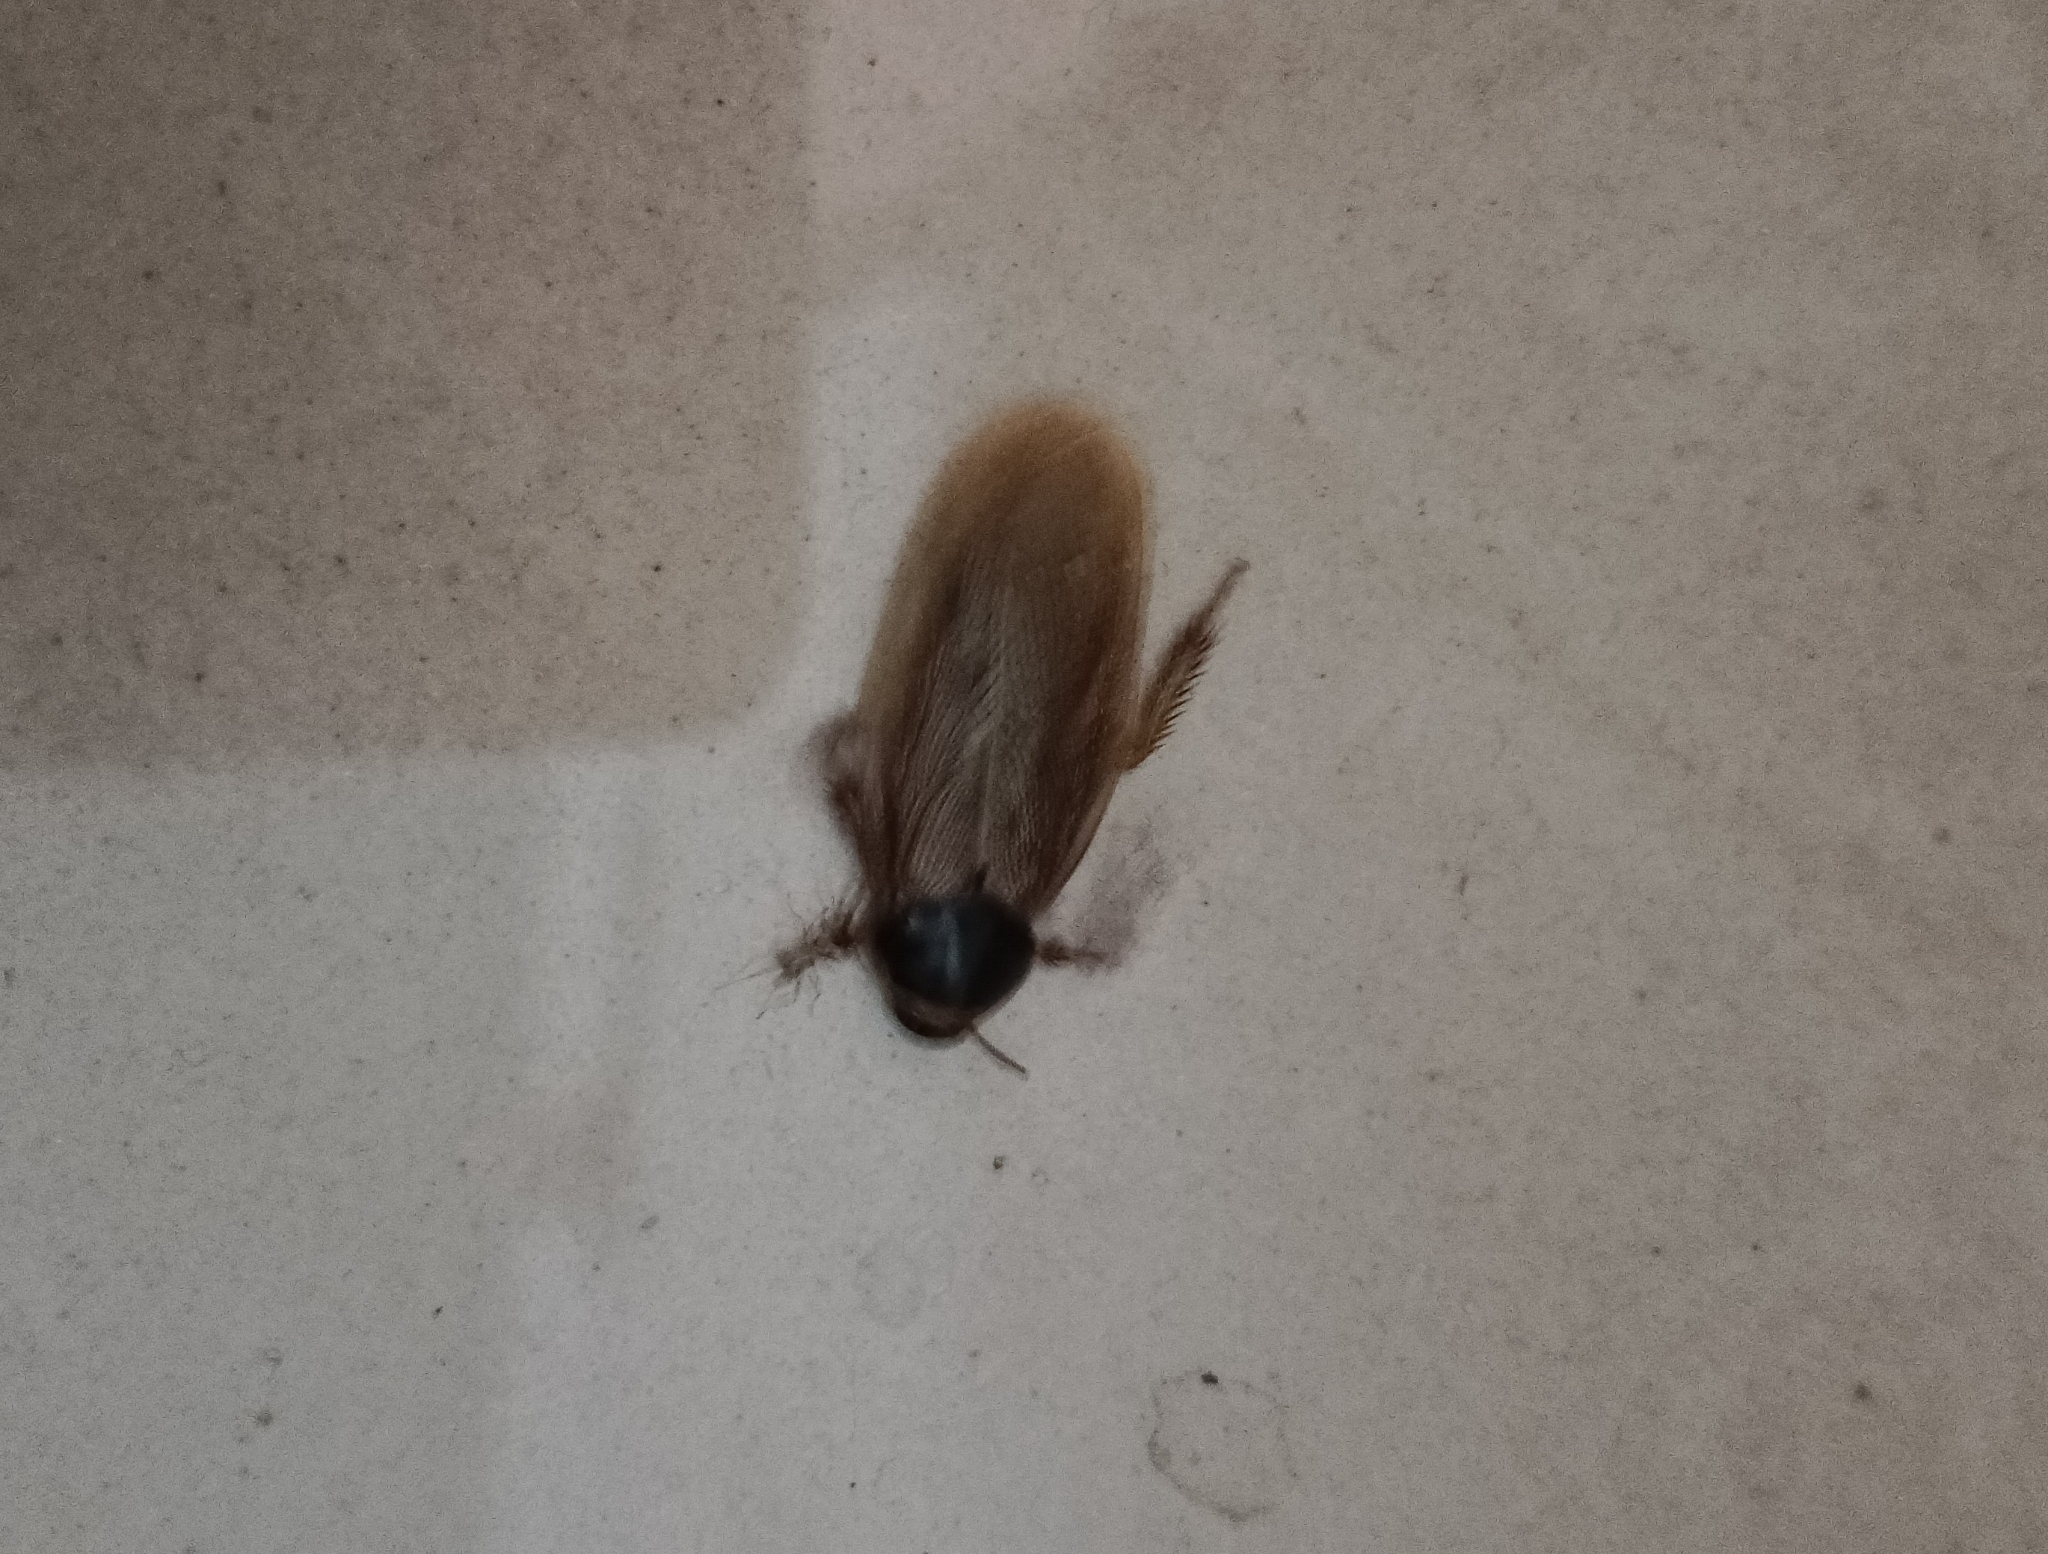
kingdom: Animalia
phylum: Arthropoda
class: Insecta
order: Blattodea
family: Blaberidae
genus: Pycnoscelus
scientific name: Pycnoscelus indicus
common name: Burrowing cockroach
